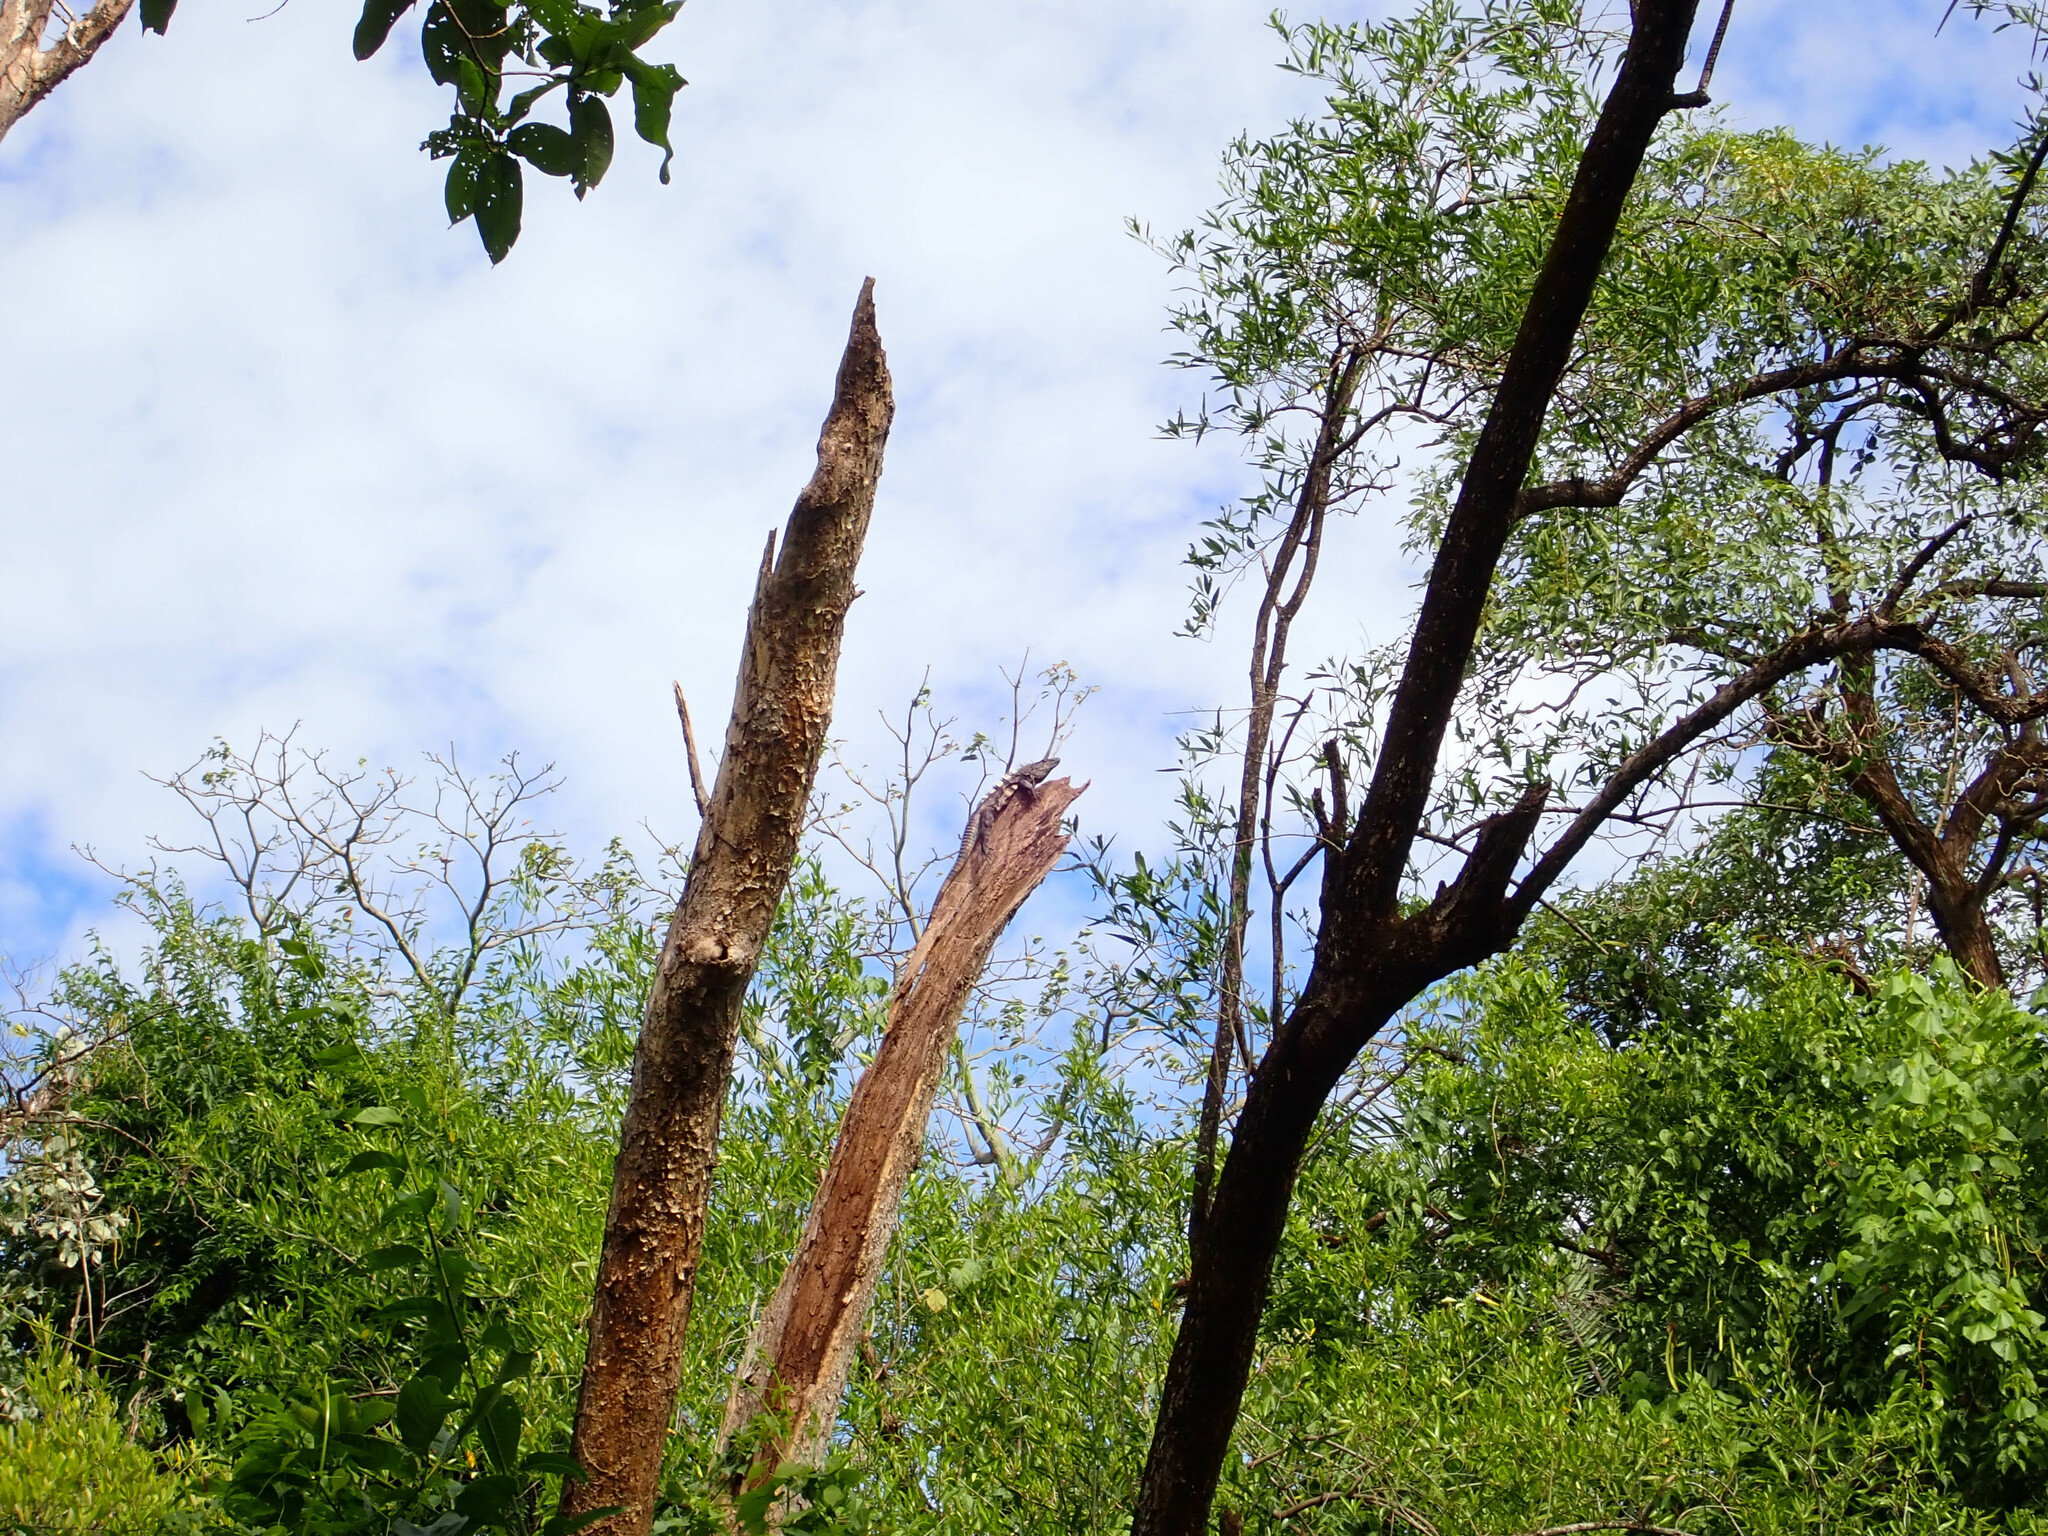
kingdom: Animalia
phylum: Chordata
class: Squamata
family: Iguanidae
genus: Ctenosaura
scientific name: Ctenosaura similis
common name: Black spiny-tailed iguana
